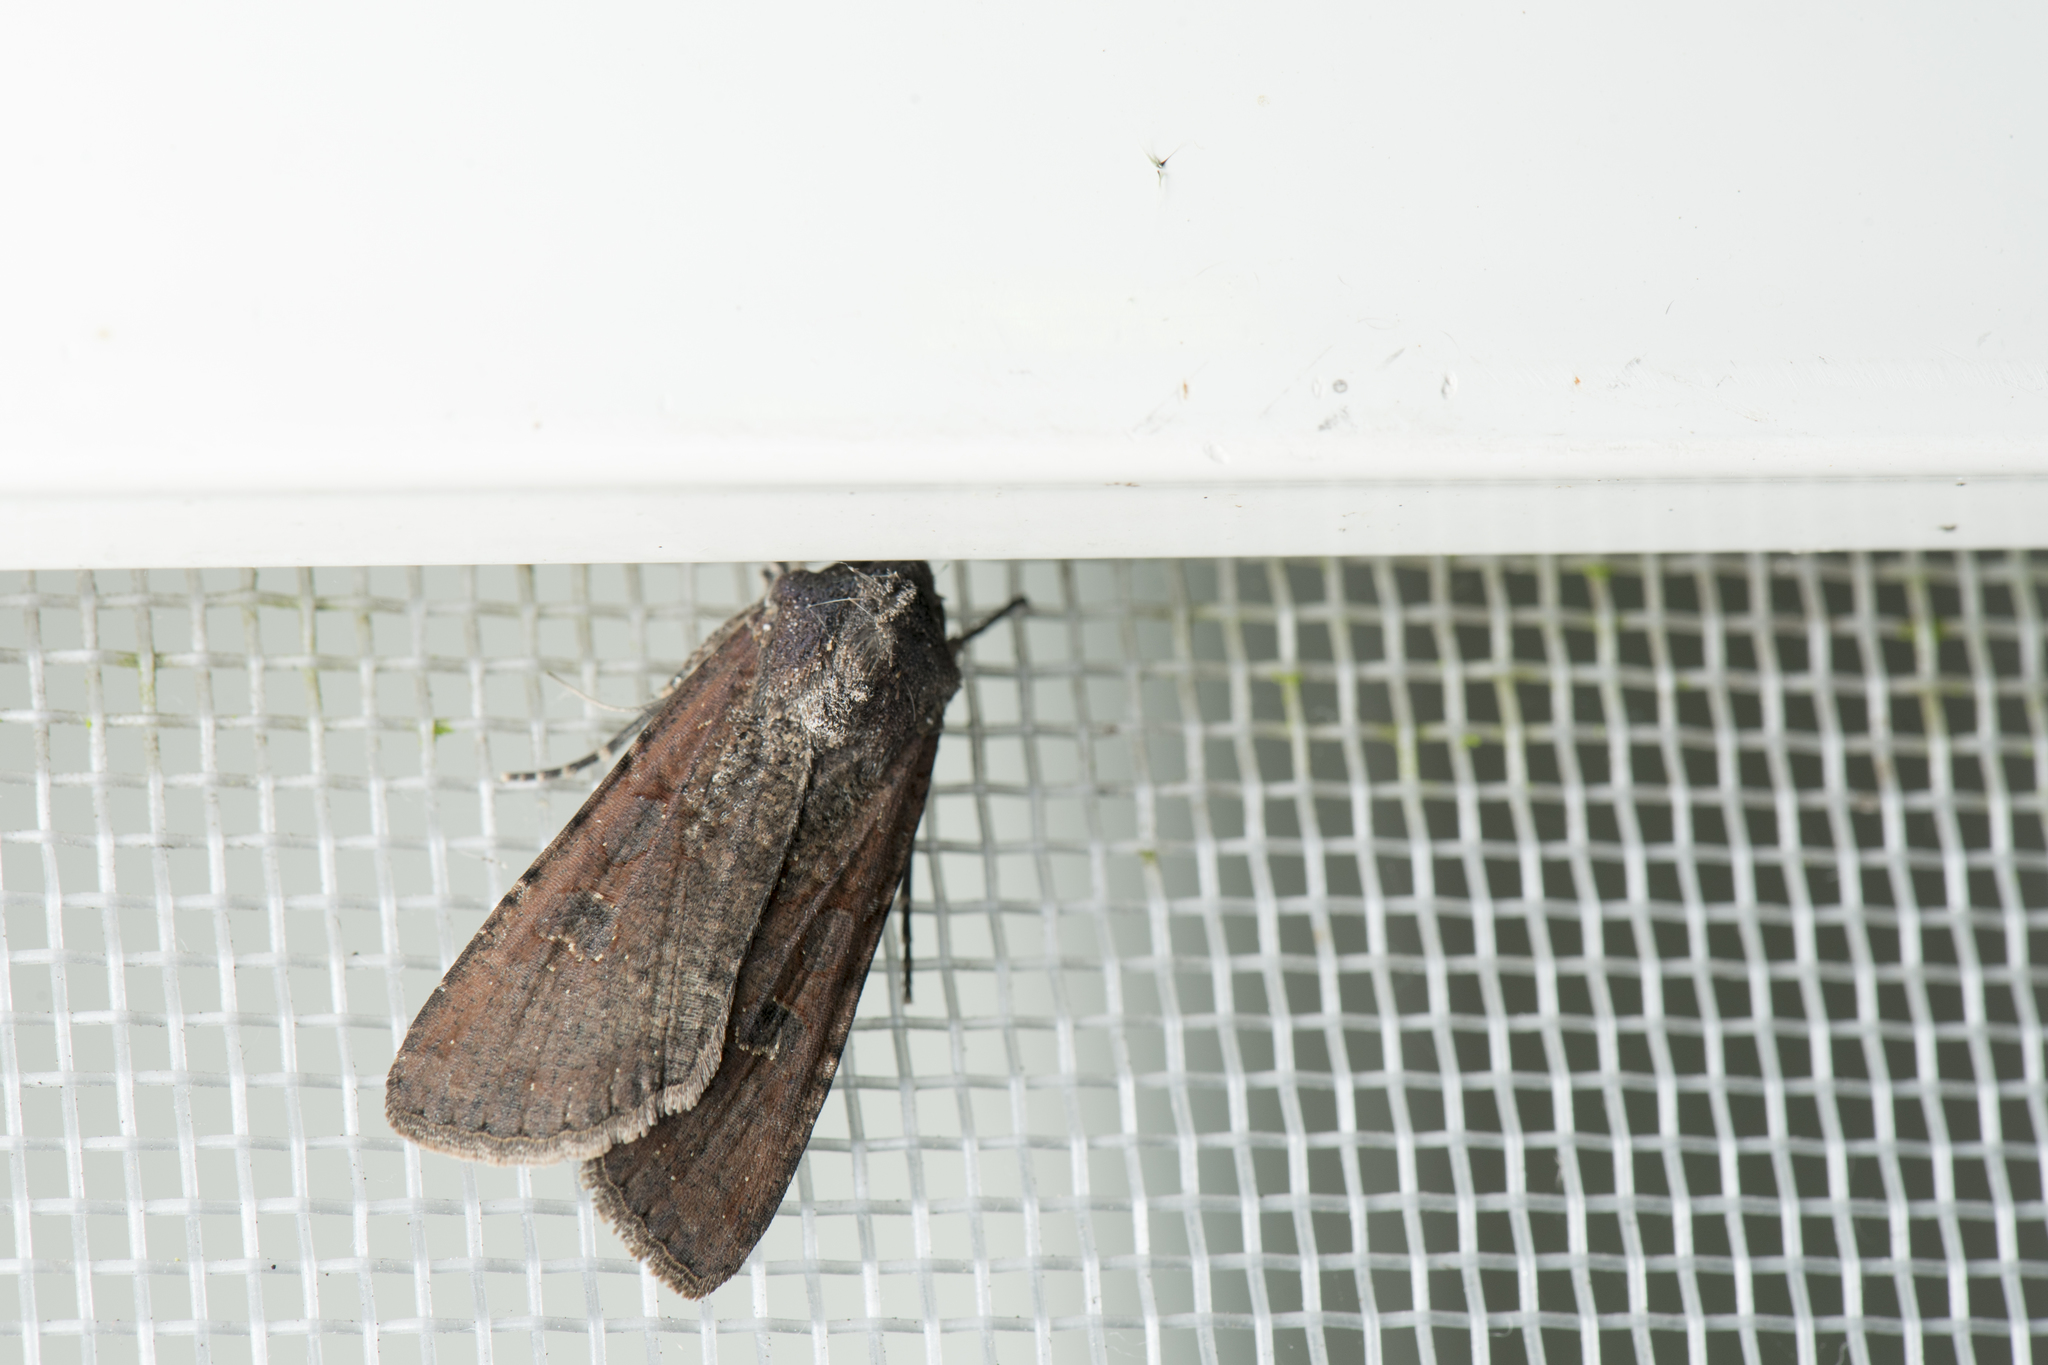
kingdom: Animalia
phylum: Arthropoda
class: Insecta
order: Lepidoptera
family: Noctuidae
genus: Peridroma
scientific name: Peridroma saucia
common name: Pearly underwing
